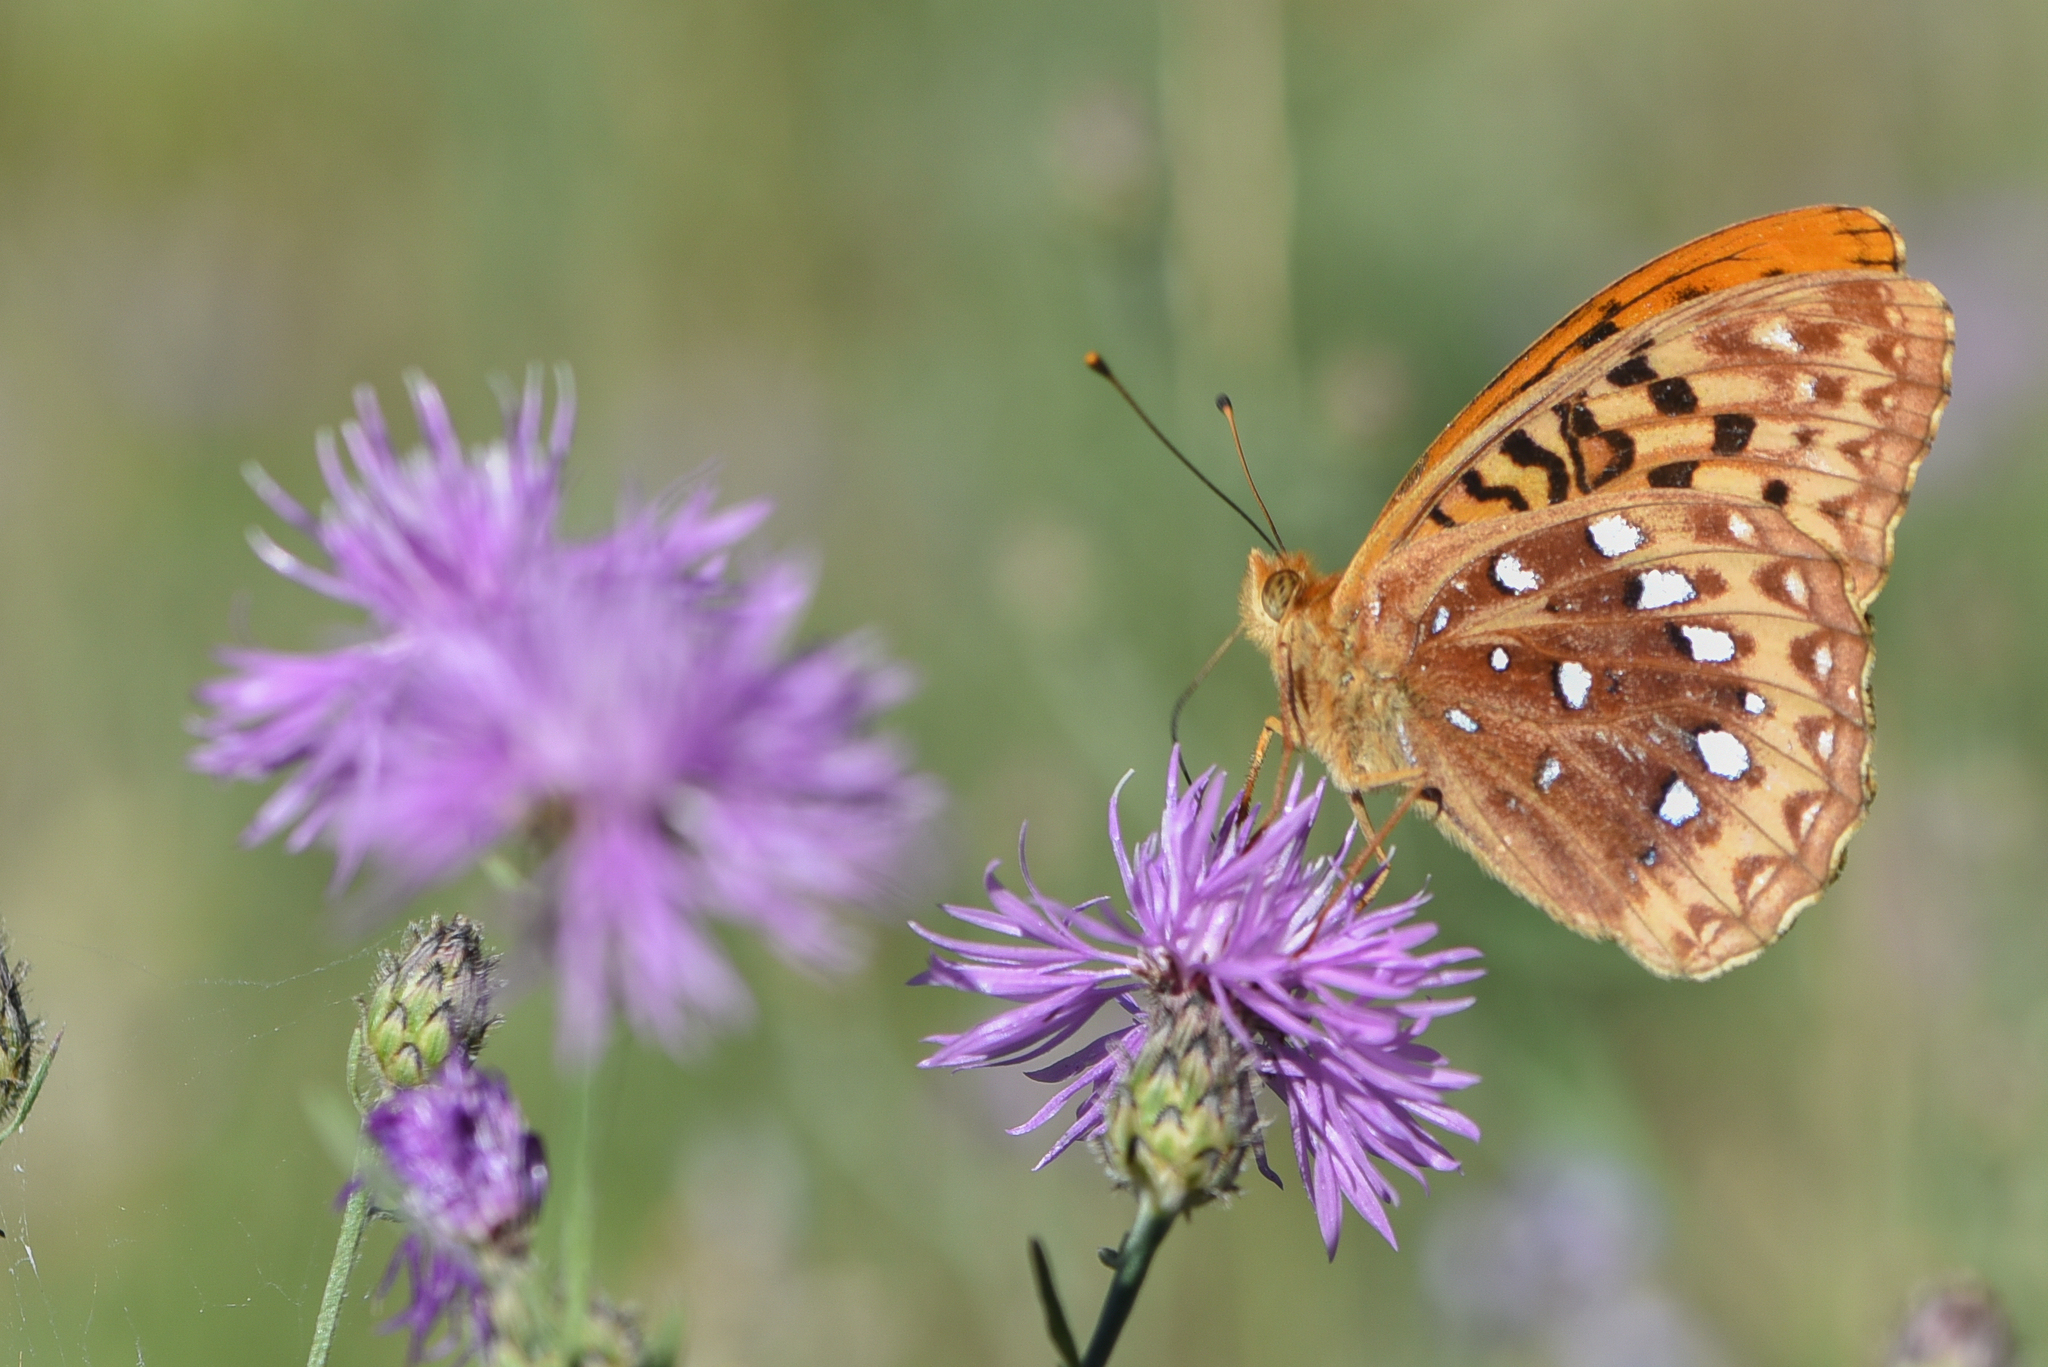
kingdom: Animalia
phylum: Arthropoda
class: Insecta
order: Lepidoptera
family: Nymphalidae
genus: Speyeria
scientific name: Speyeria cybele
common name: Great spangled fritillary
